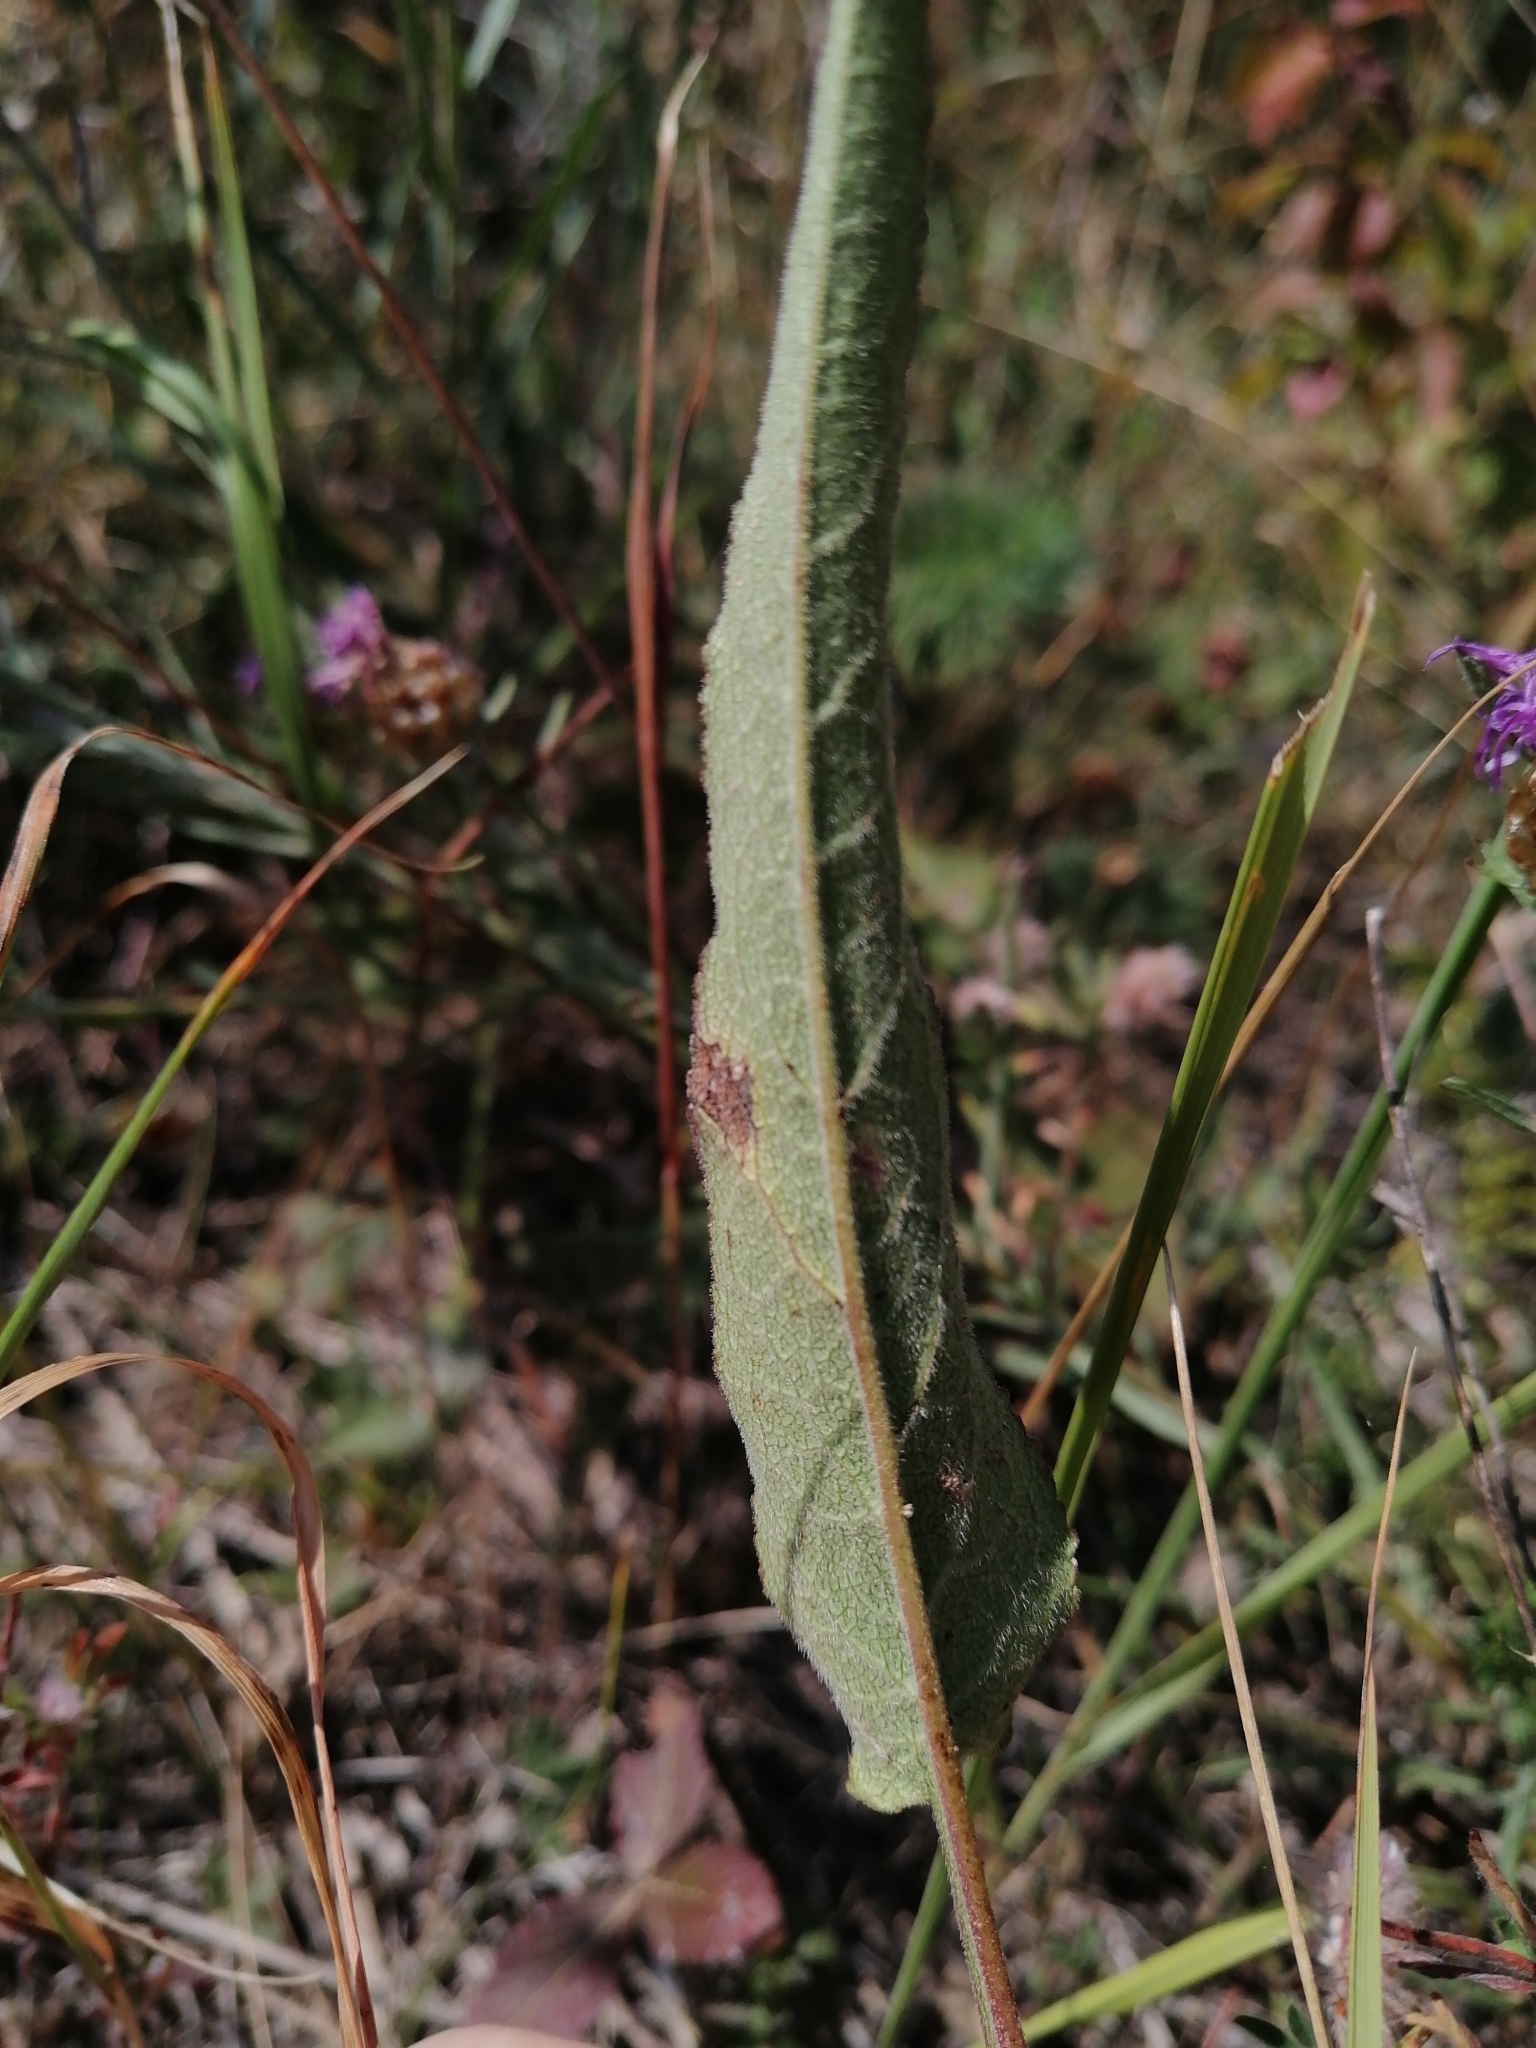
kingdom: Plantae
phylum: Tracheophyta
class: Magnoliopsida
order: Asterales
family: Campanulaceae
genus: Campanula
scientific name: Campanula glomerata
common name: Clustered bellflower
